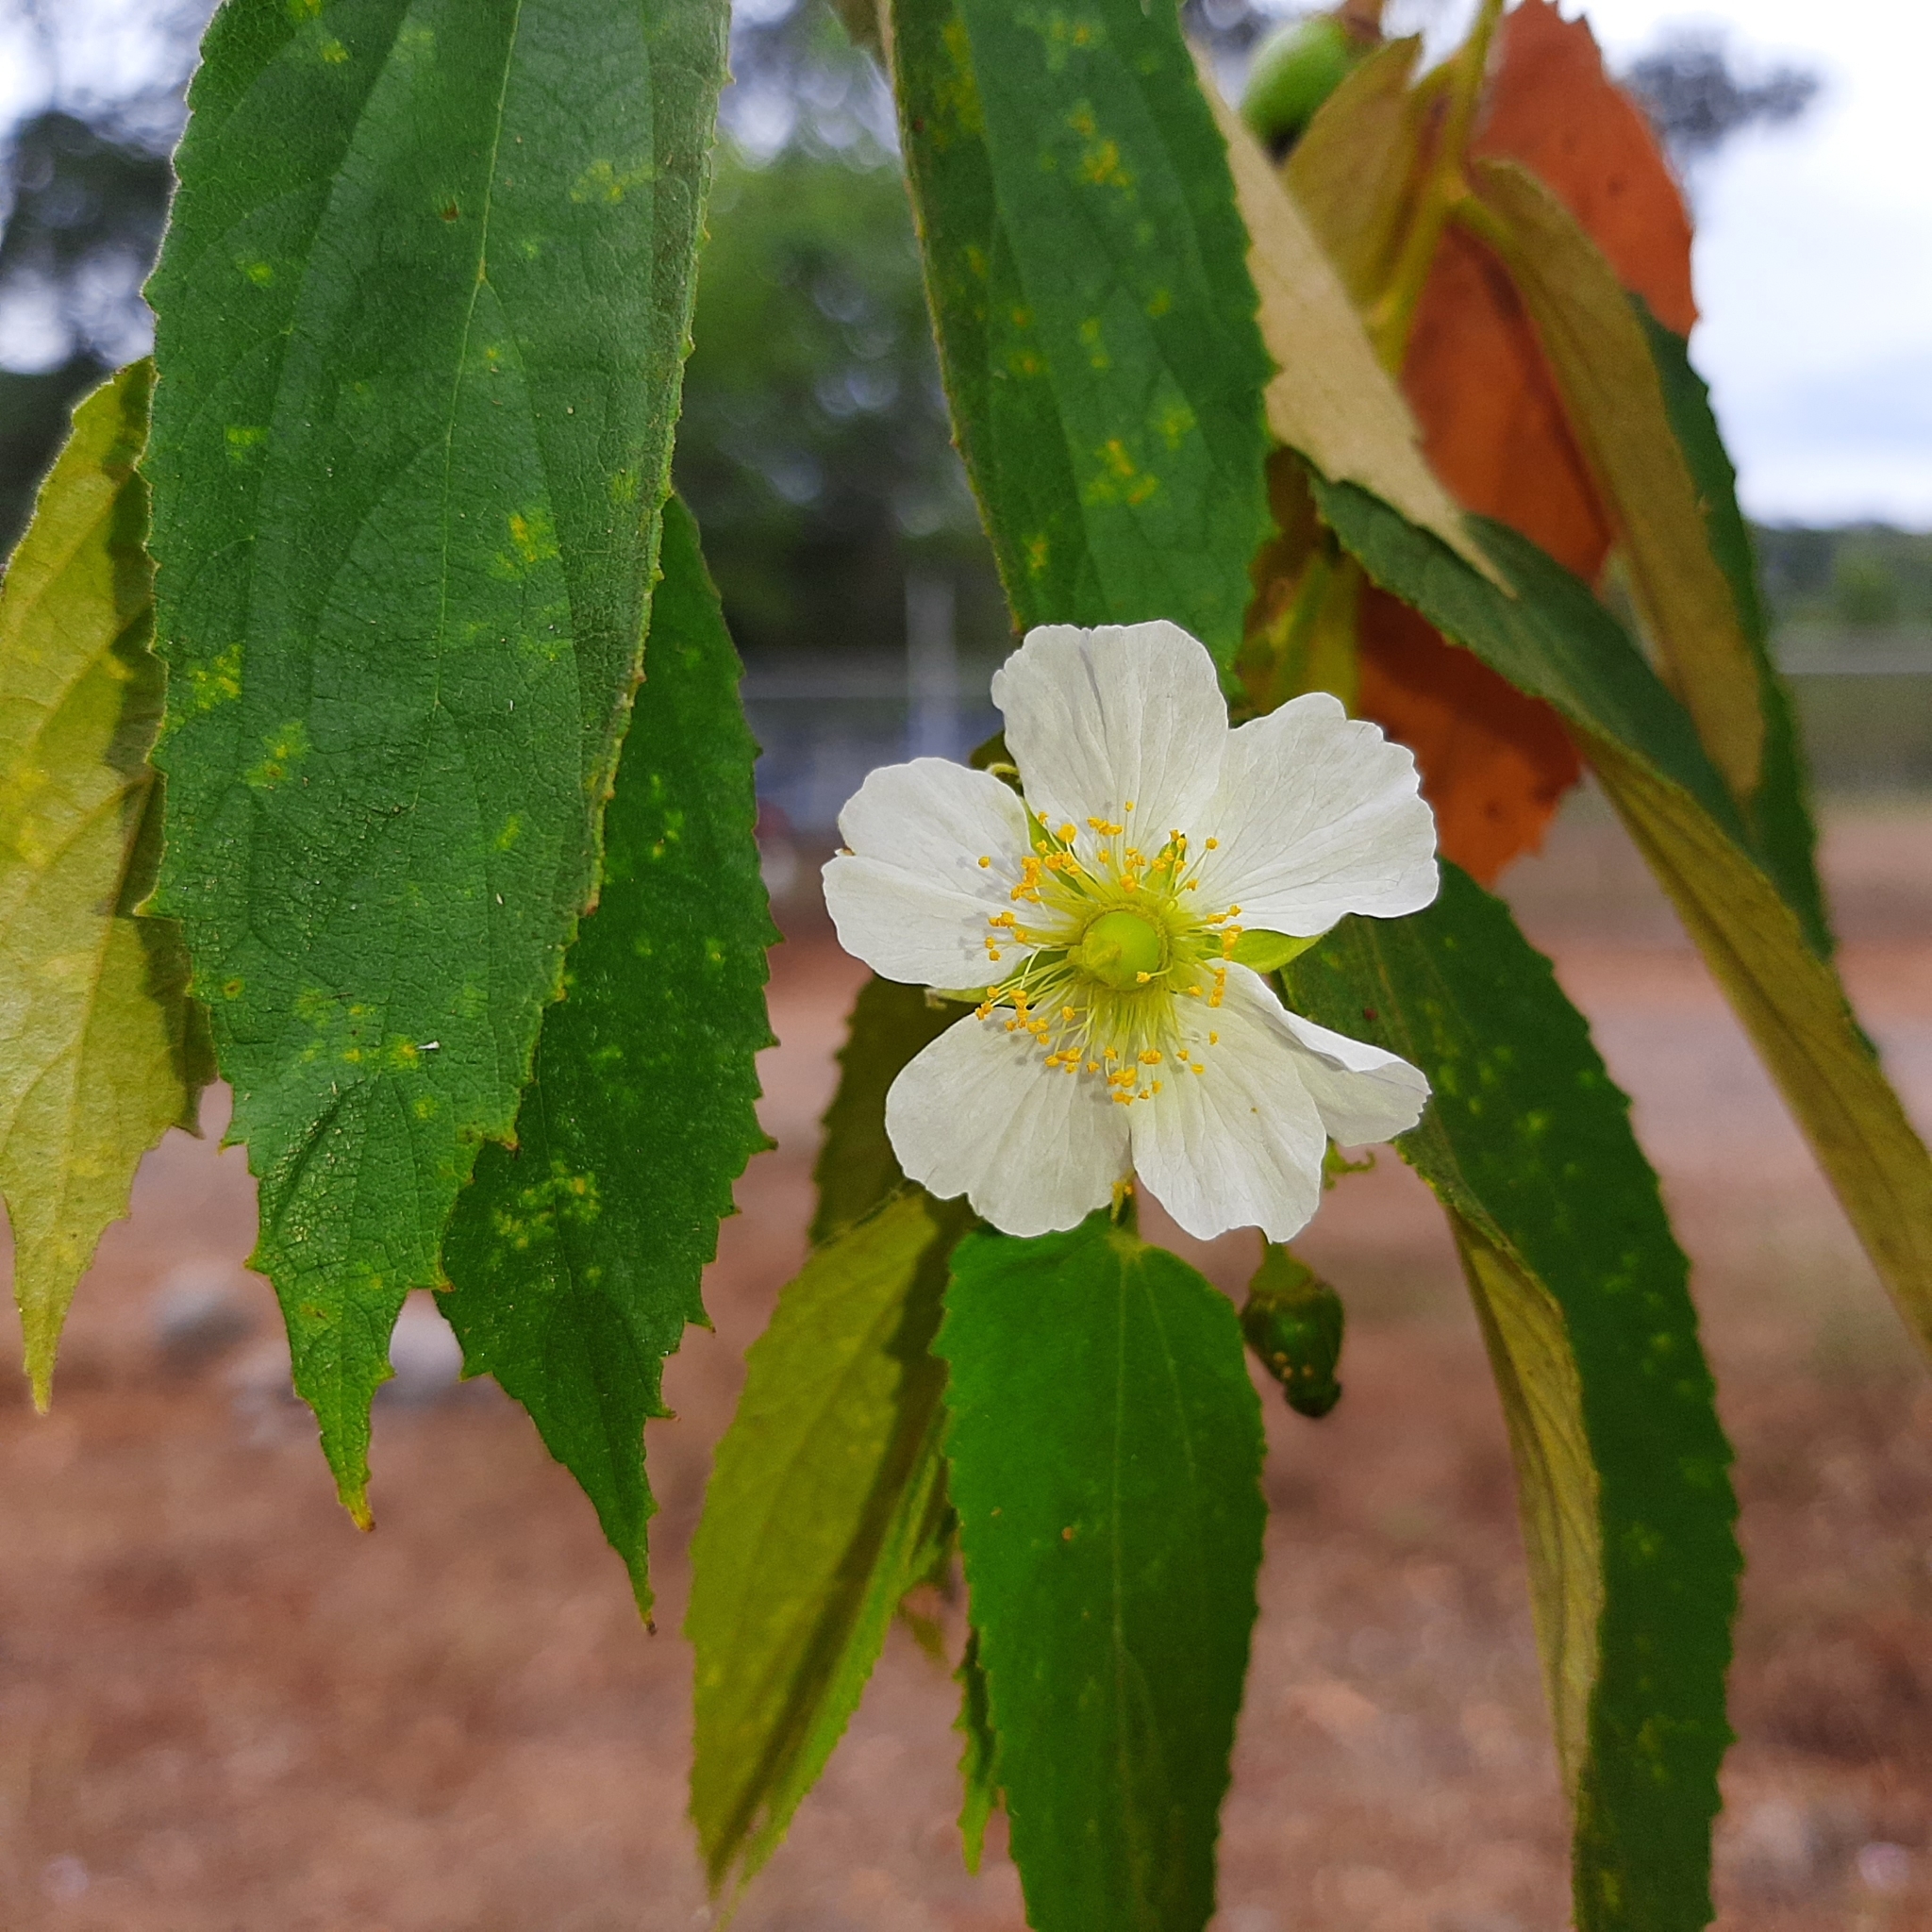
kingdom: Plantae
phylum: Tracheophyta
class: Magnoliopsida
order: Malvales
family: Muntingiaceae
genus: Muntingia
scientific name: Muntingia calabura
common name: Strawberrytree
